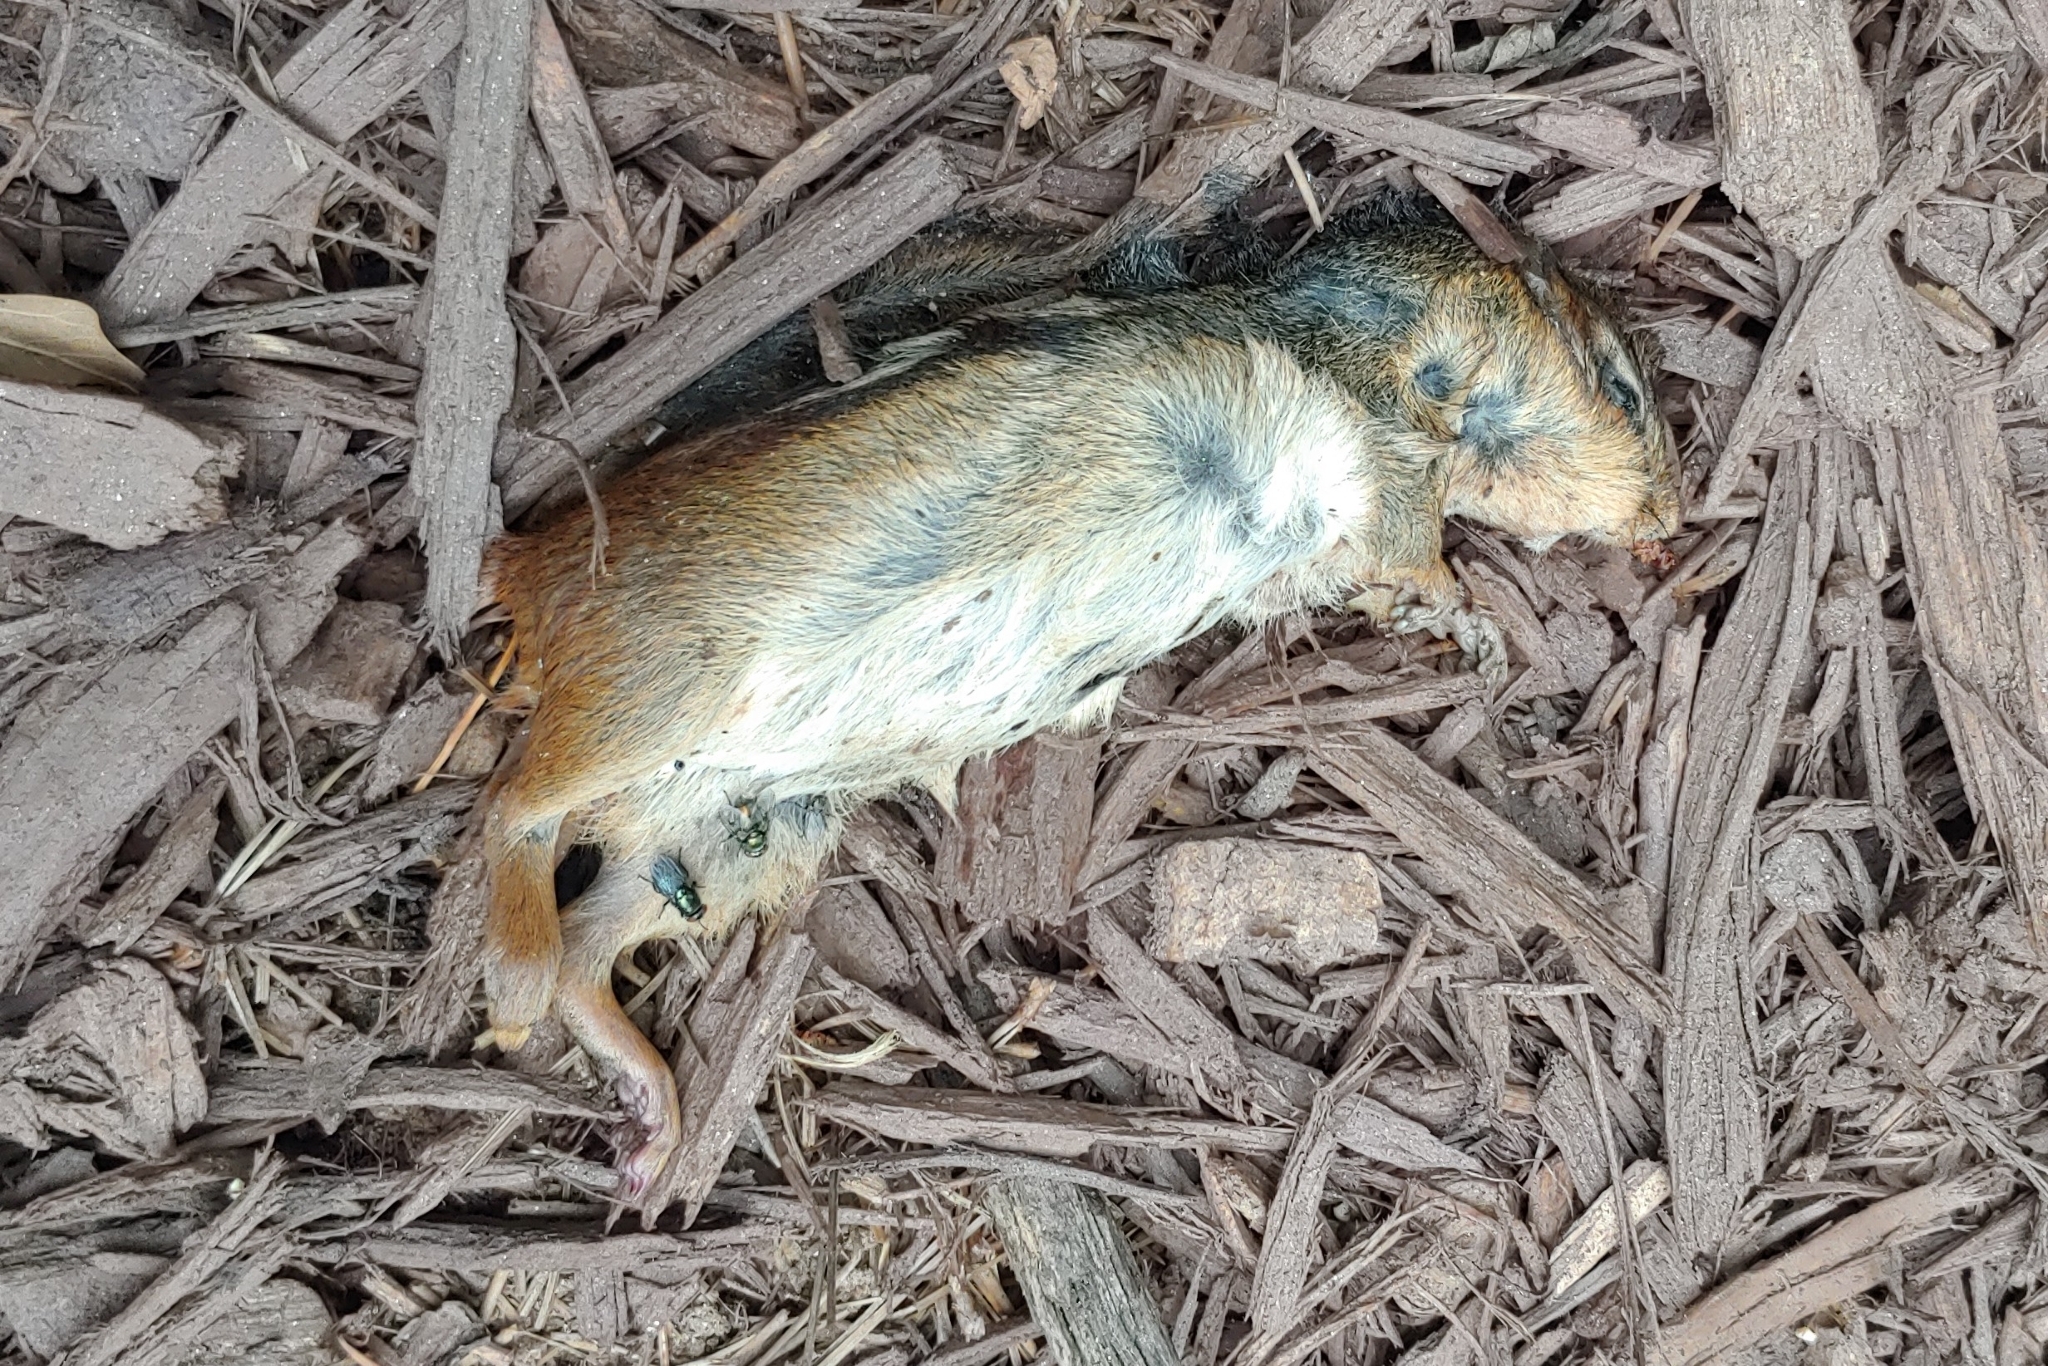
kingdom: Animalia
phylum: Chordata
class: Mammalia
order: Rodentia
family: Sciuridae
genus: Tamias
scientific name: Tamias striatus
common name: Eastern chipmunk
